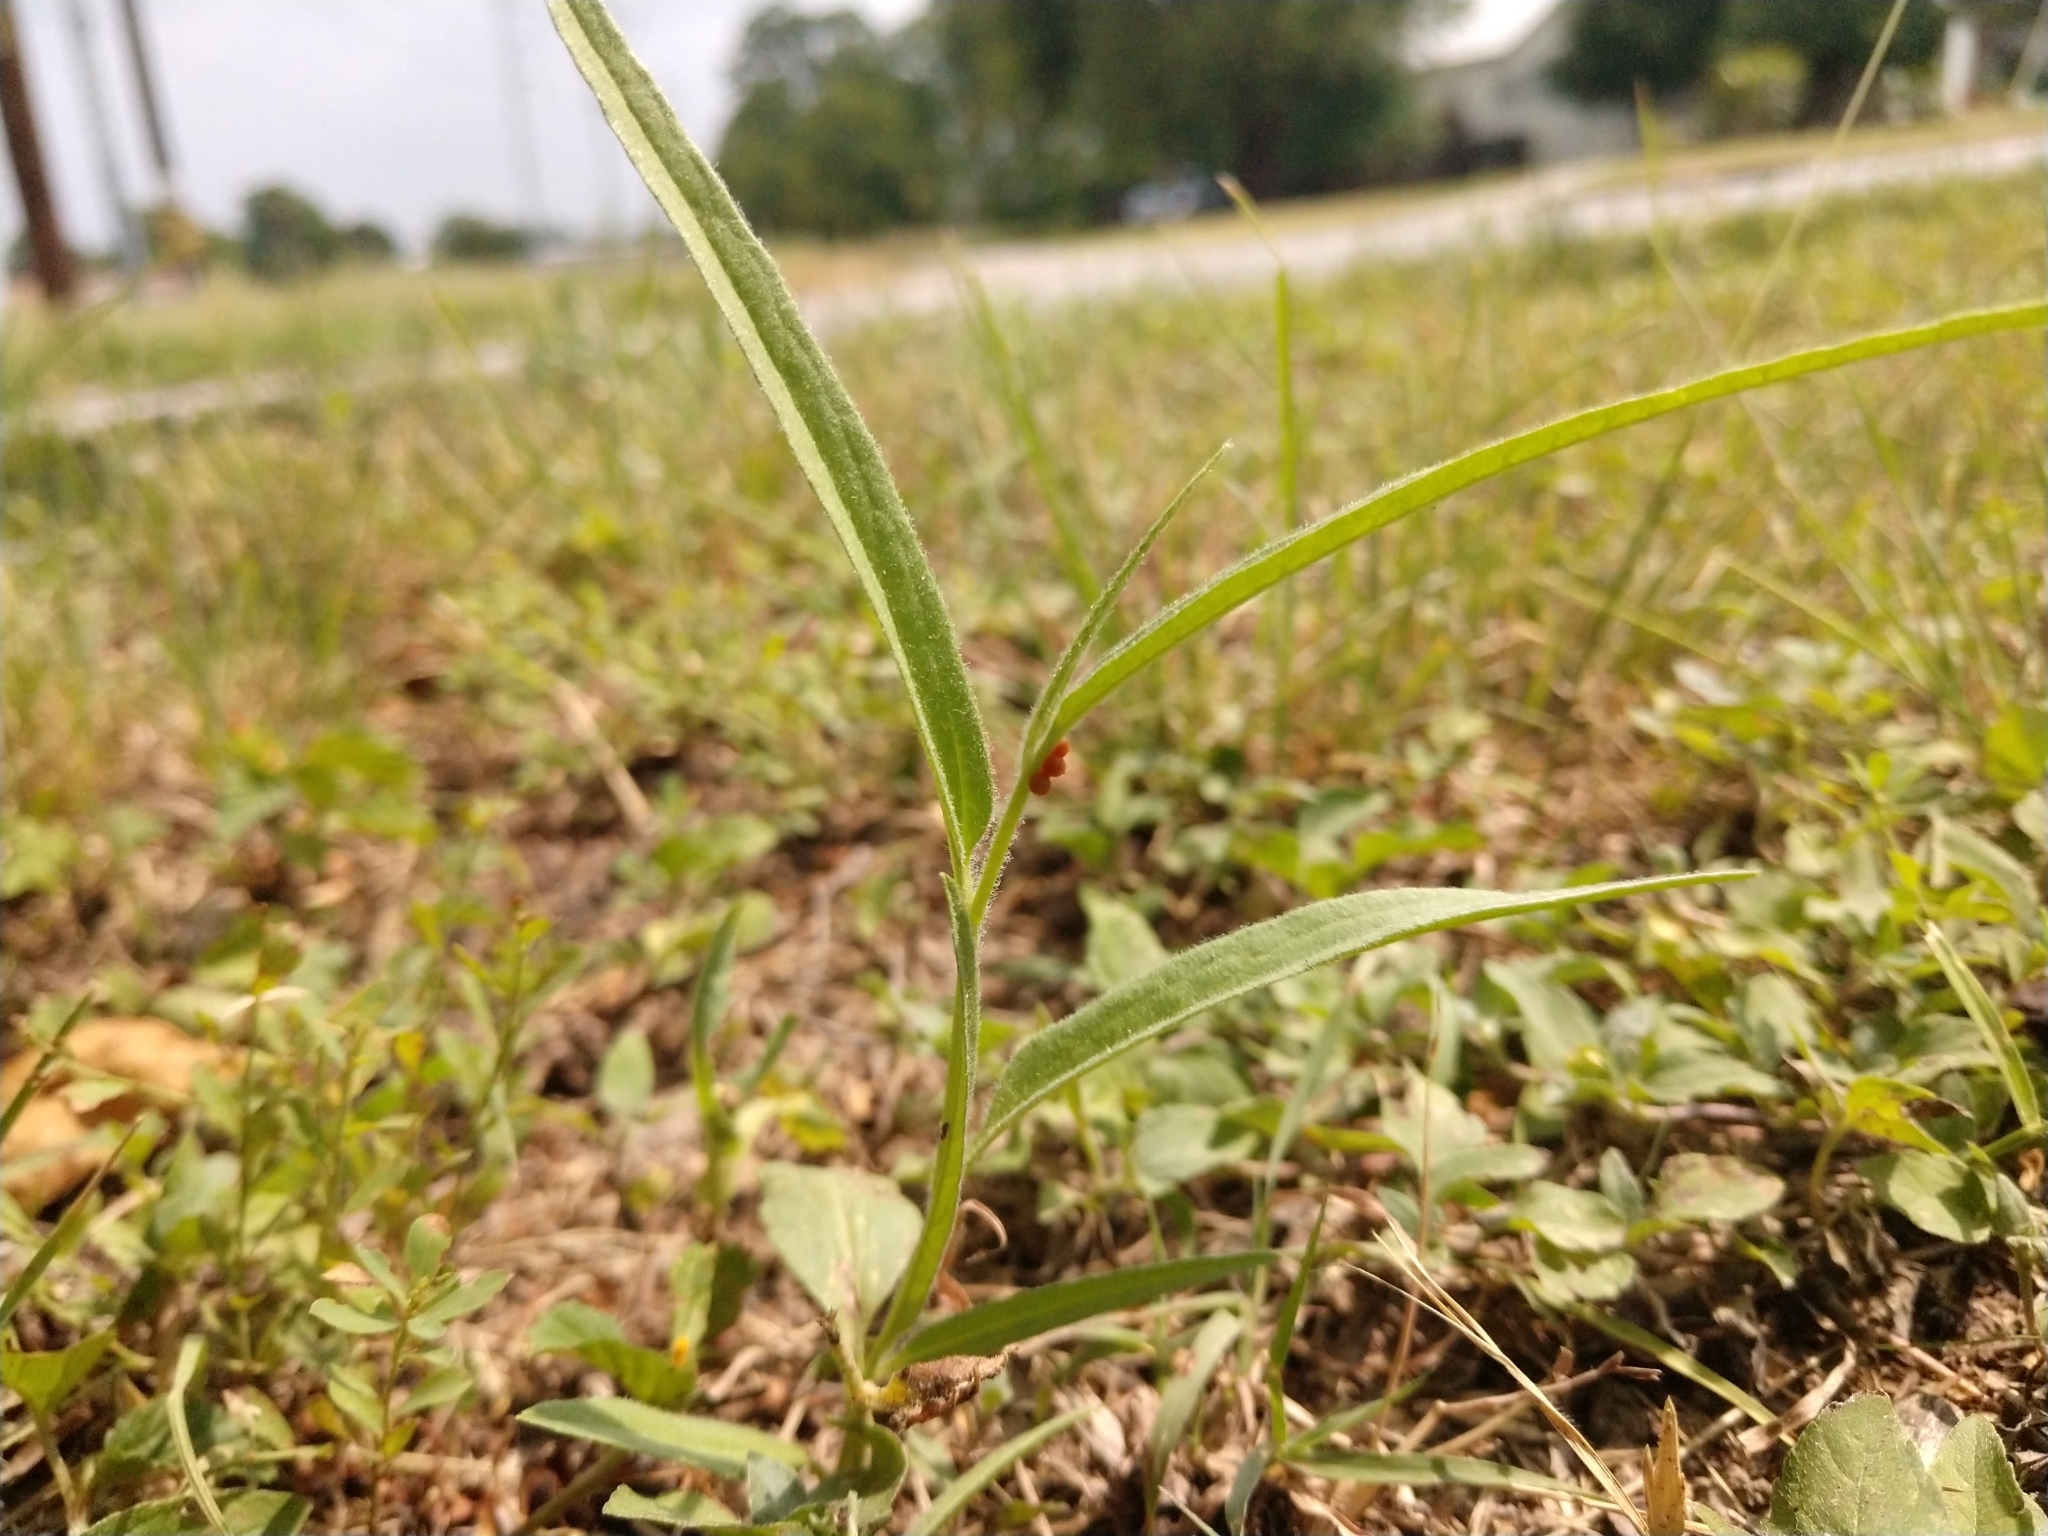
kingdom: Plantae
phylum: Tracheophyta
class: Magnoliopsida
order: Piperales
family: Aristolochiaceae
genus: Aristolochia
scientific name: Aristolochia erecta
